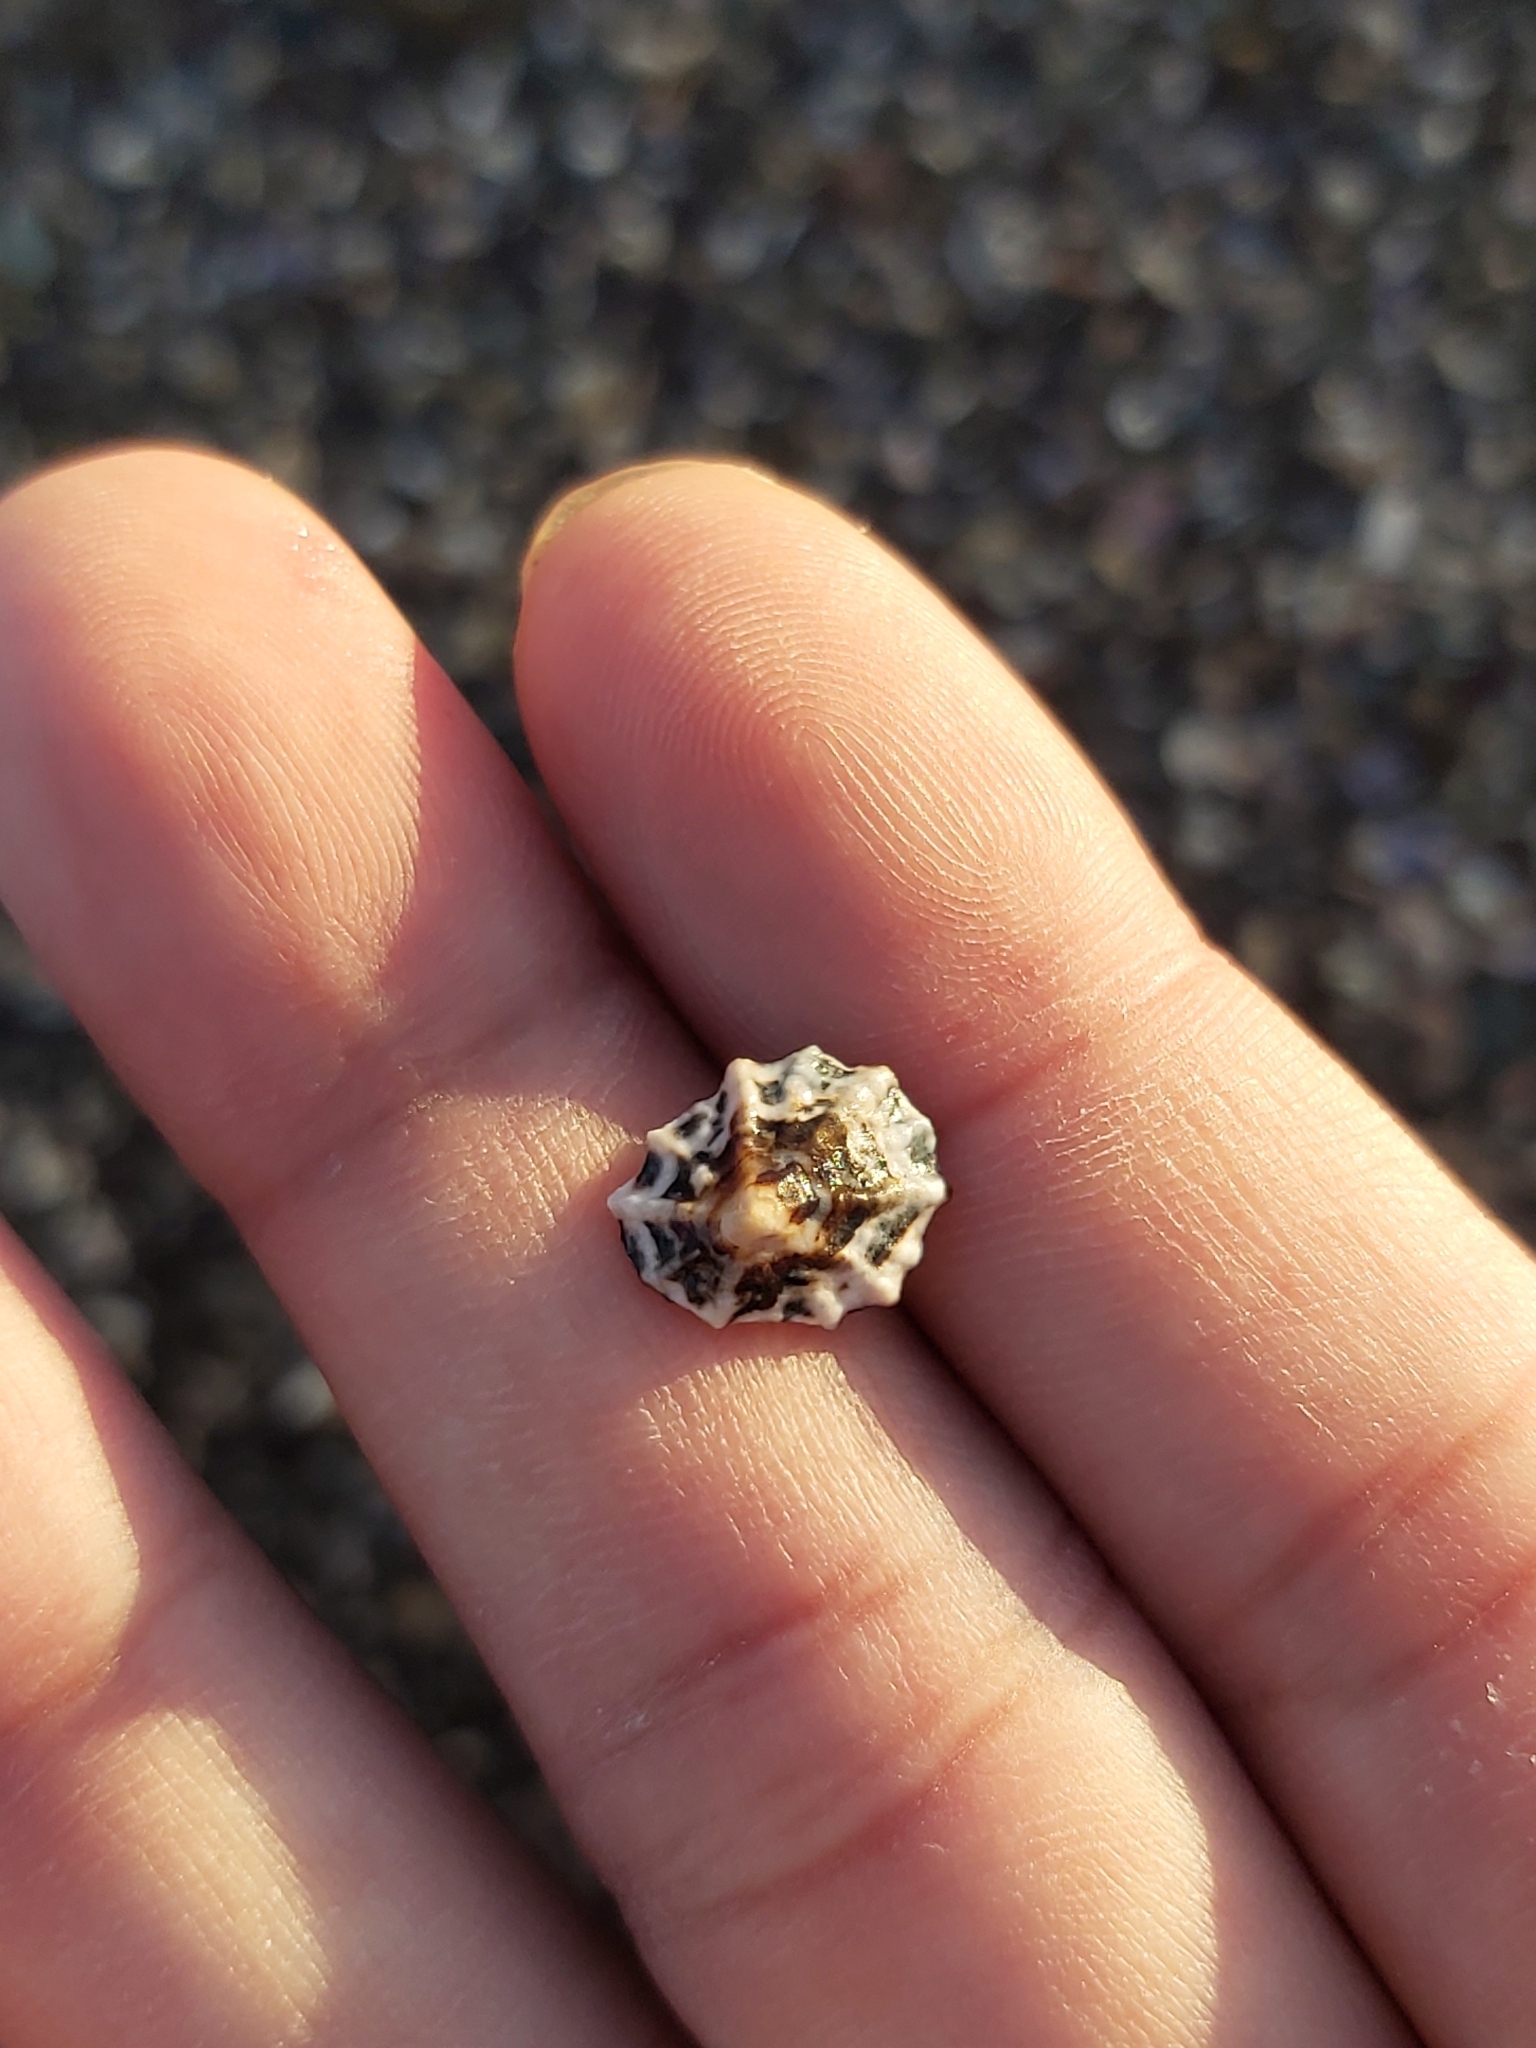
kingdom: Animalia
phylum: Mollusca
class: Gastropoda
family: Lottiidae
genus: Patelloida
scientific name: Patelloida alticostata
